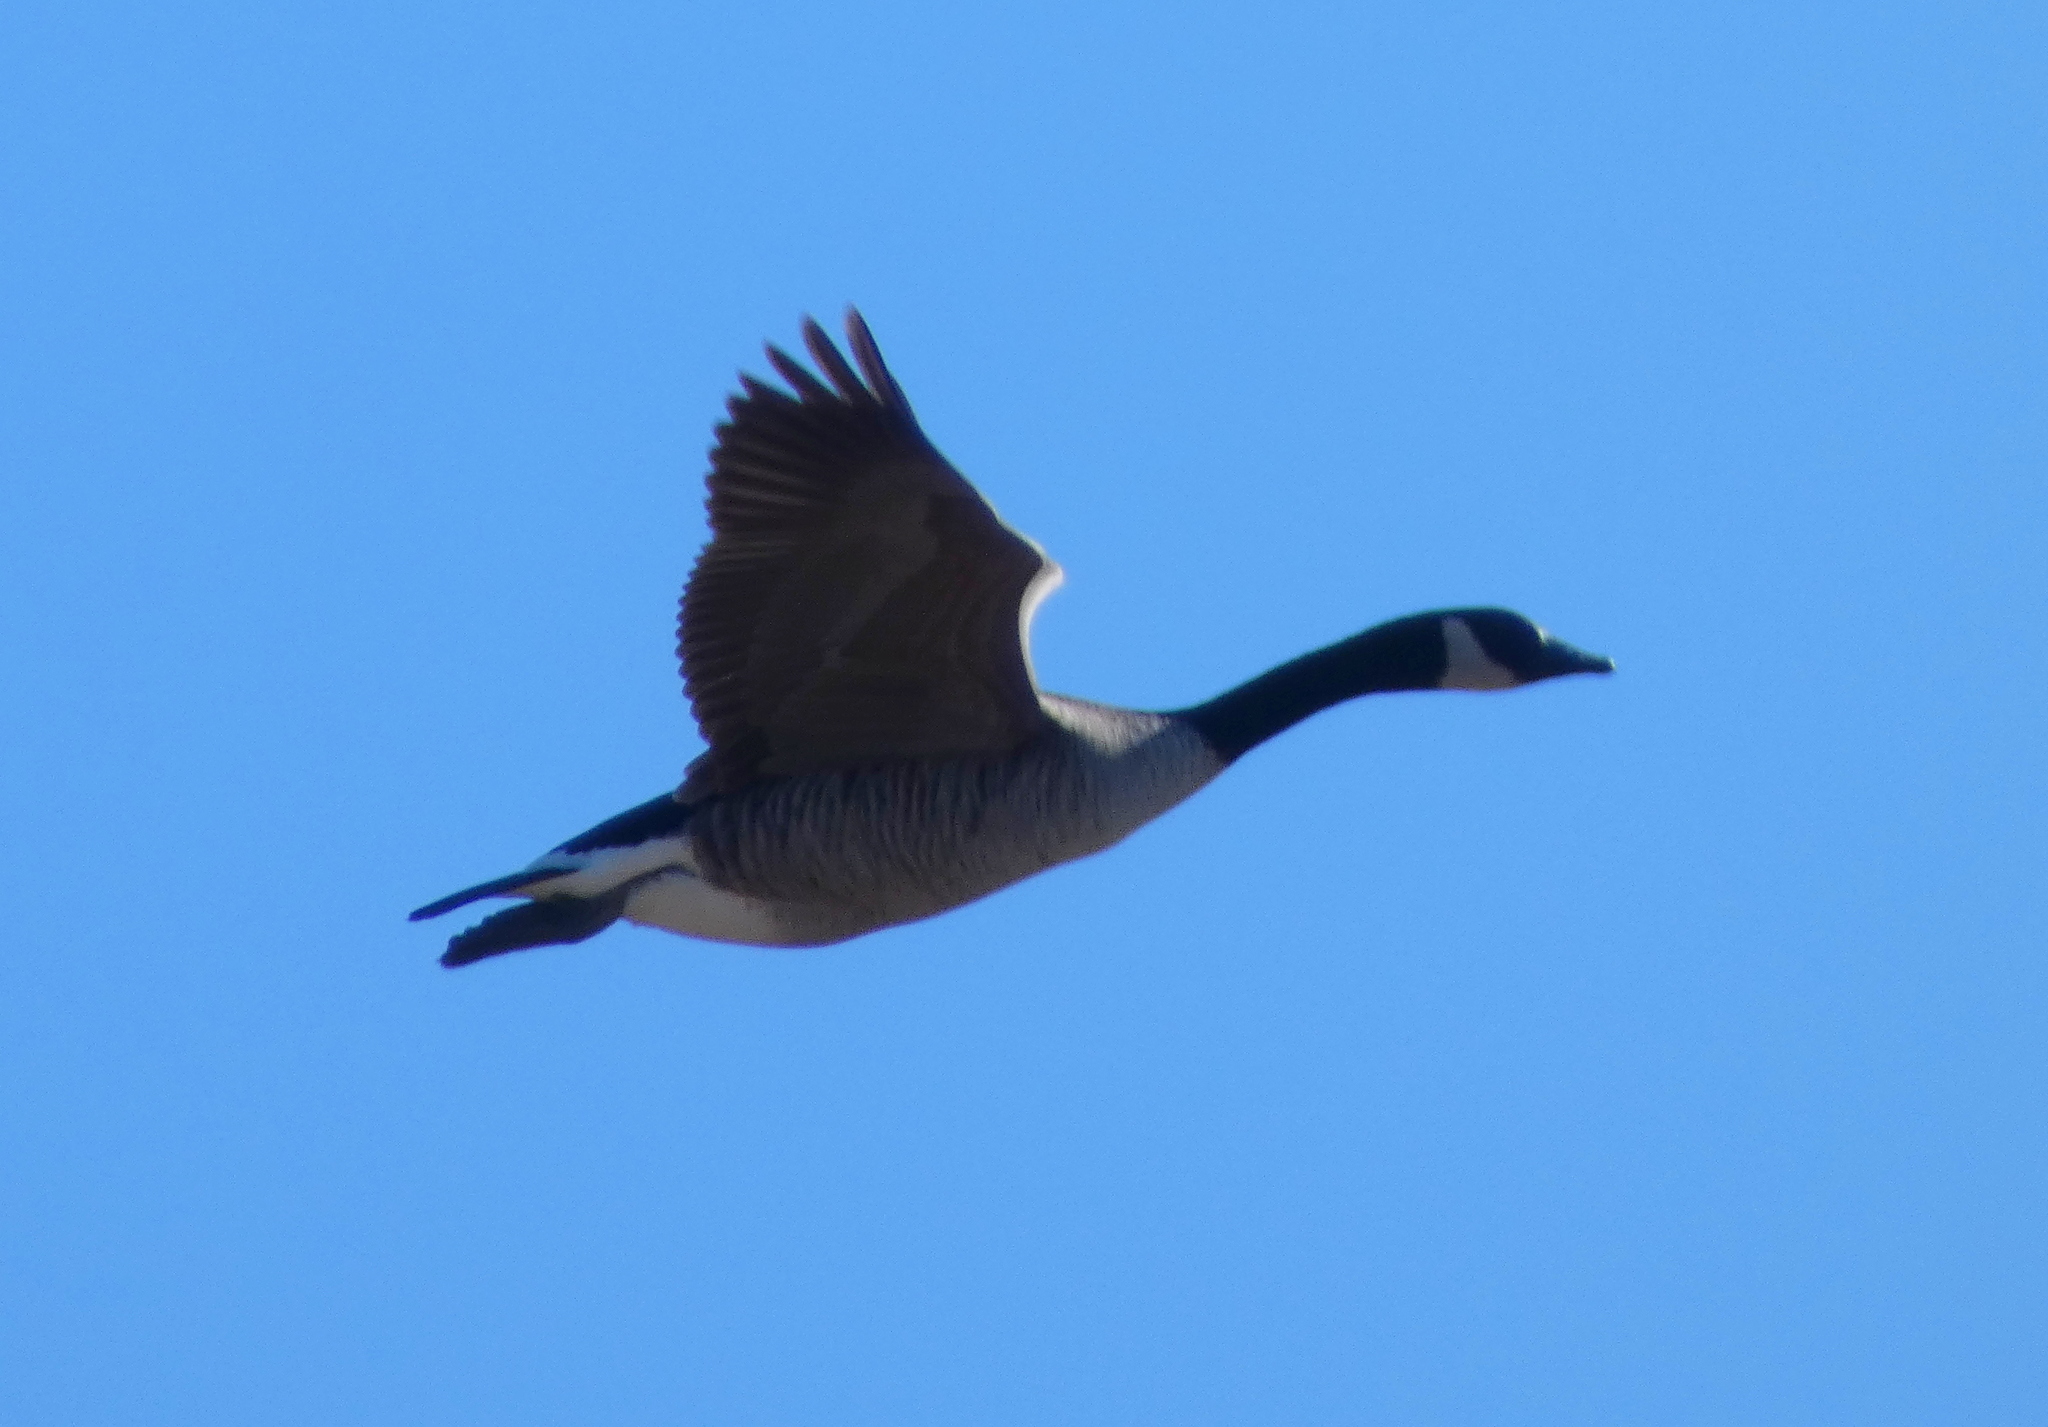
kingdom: Animalia
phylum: Chordata
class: Aves
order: Anseriformes
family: Anatidae
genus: Branta
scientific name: Branta canadensis
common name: Canada goose
